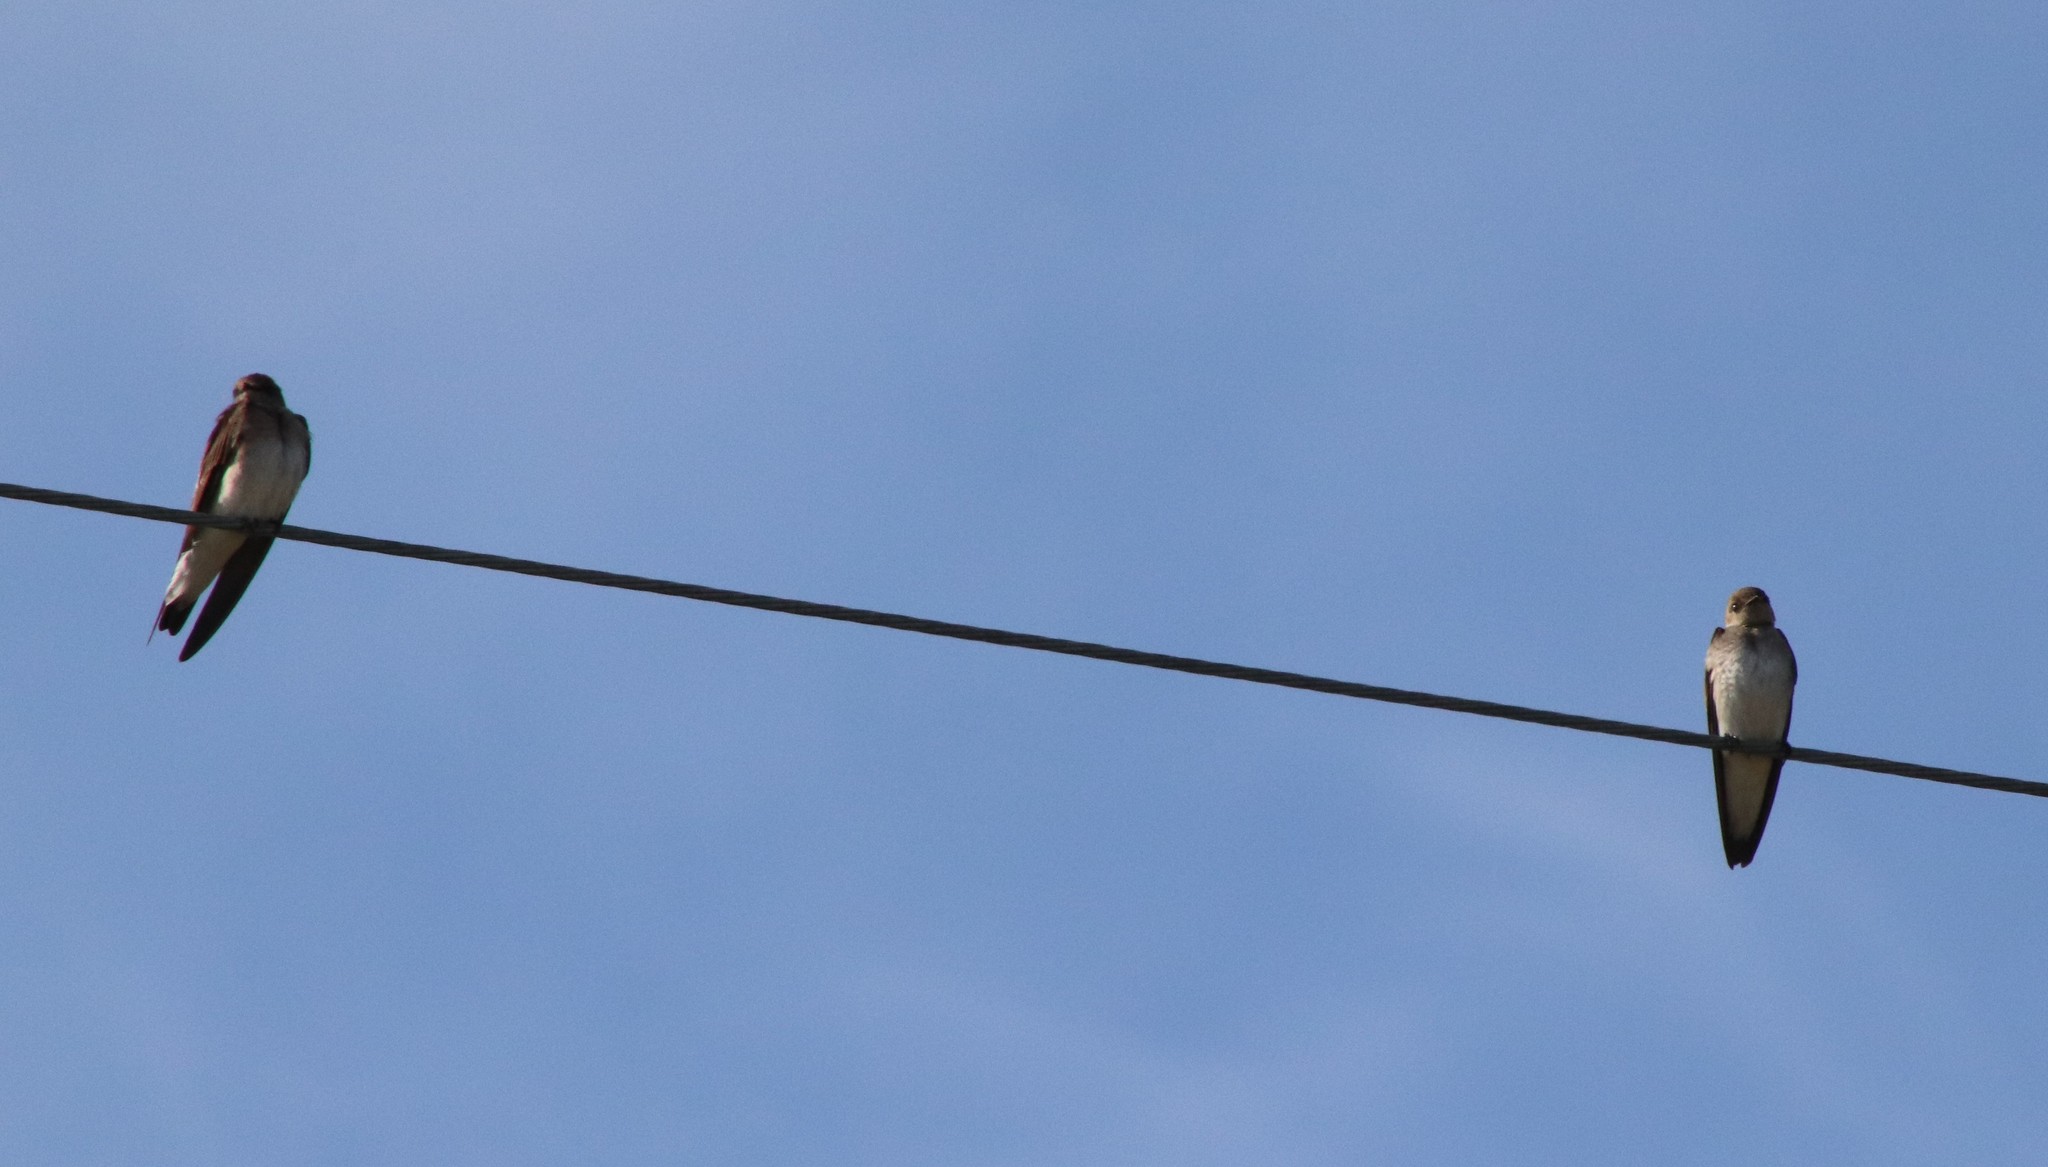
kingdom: Animalia
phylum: Chordata
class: Aves
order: Passeriformes
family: Hirundinidae
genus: Stelgidopteryx
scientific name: Stelgidopteryx serripennis
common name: Northern rough-winged swallow
